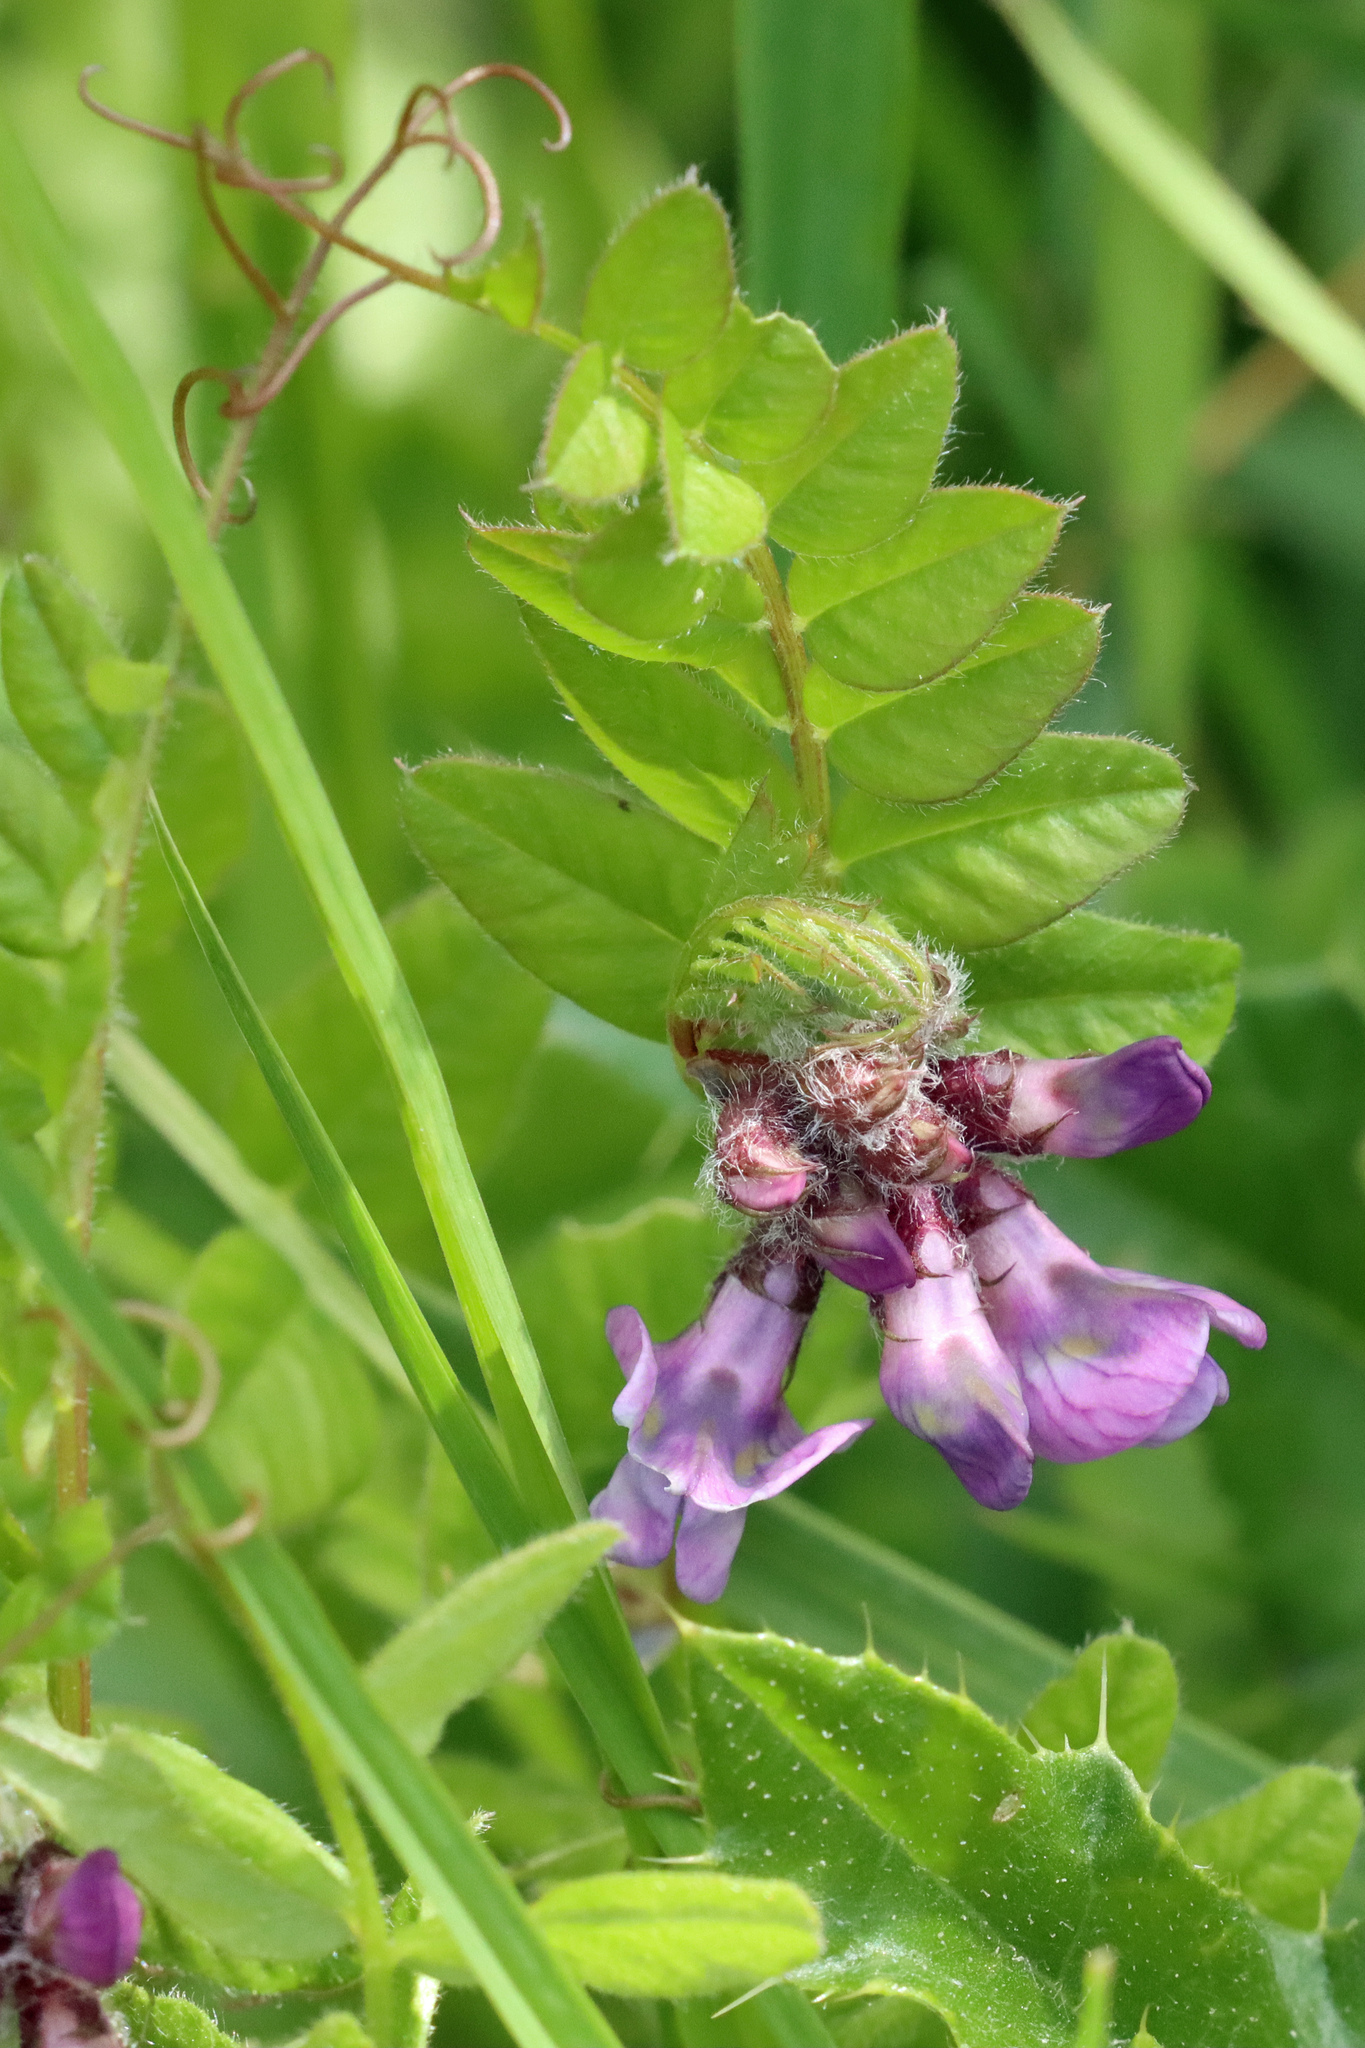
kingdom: Plantae
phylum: Tracheophyta
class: Magnoliopsida
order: Fabales
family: Fabaceae
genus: Vicia
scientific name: Vicia sepium
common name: Bush vetch
